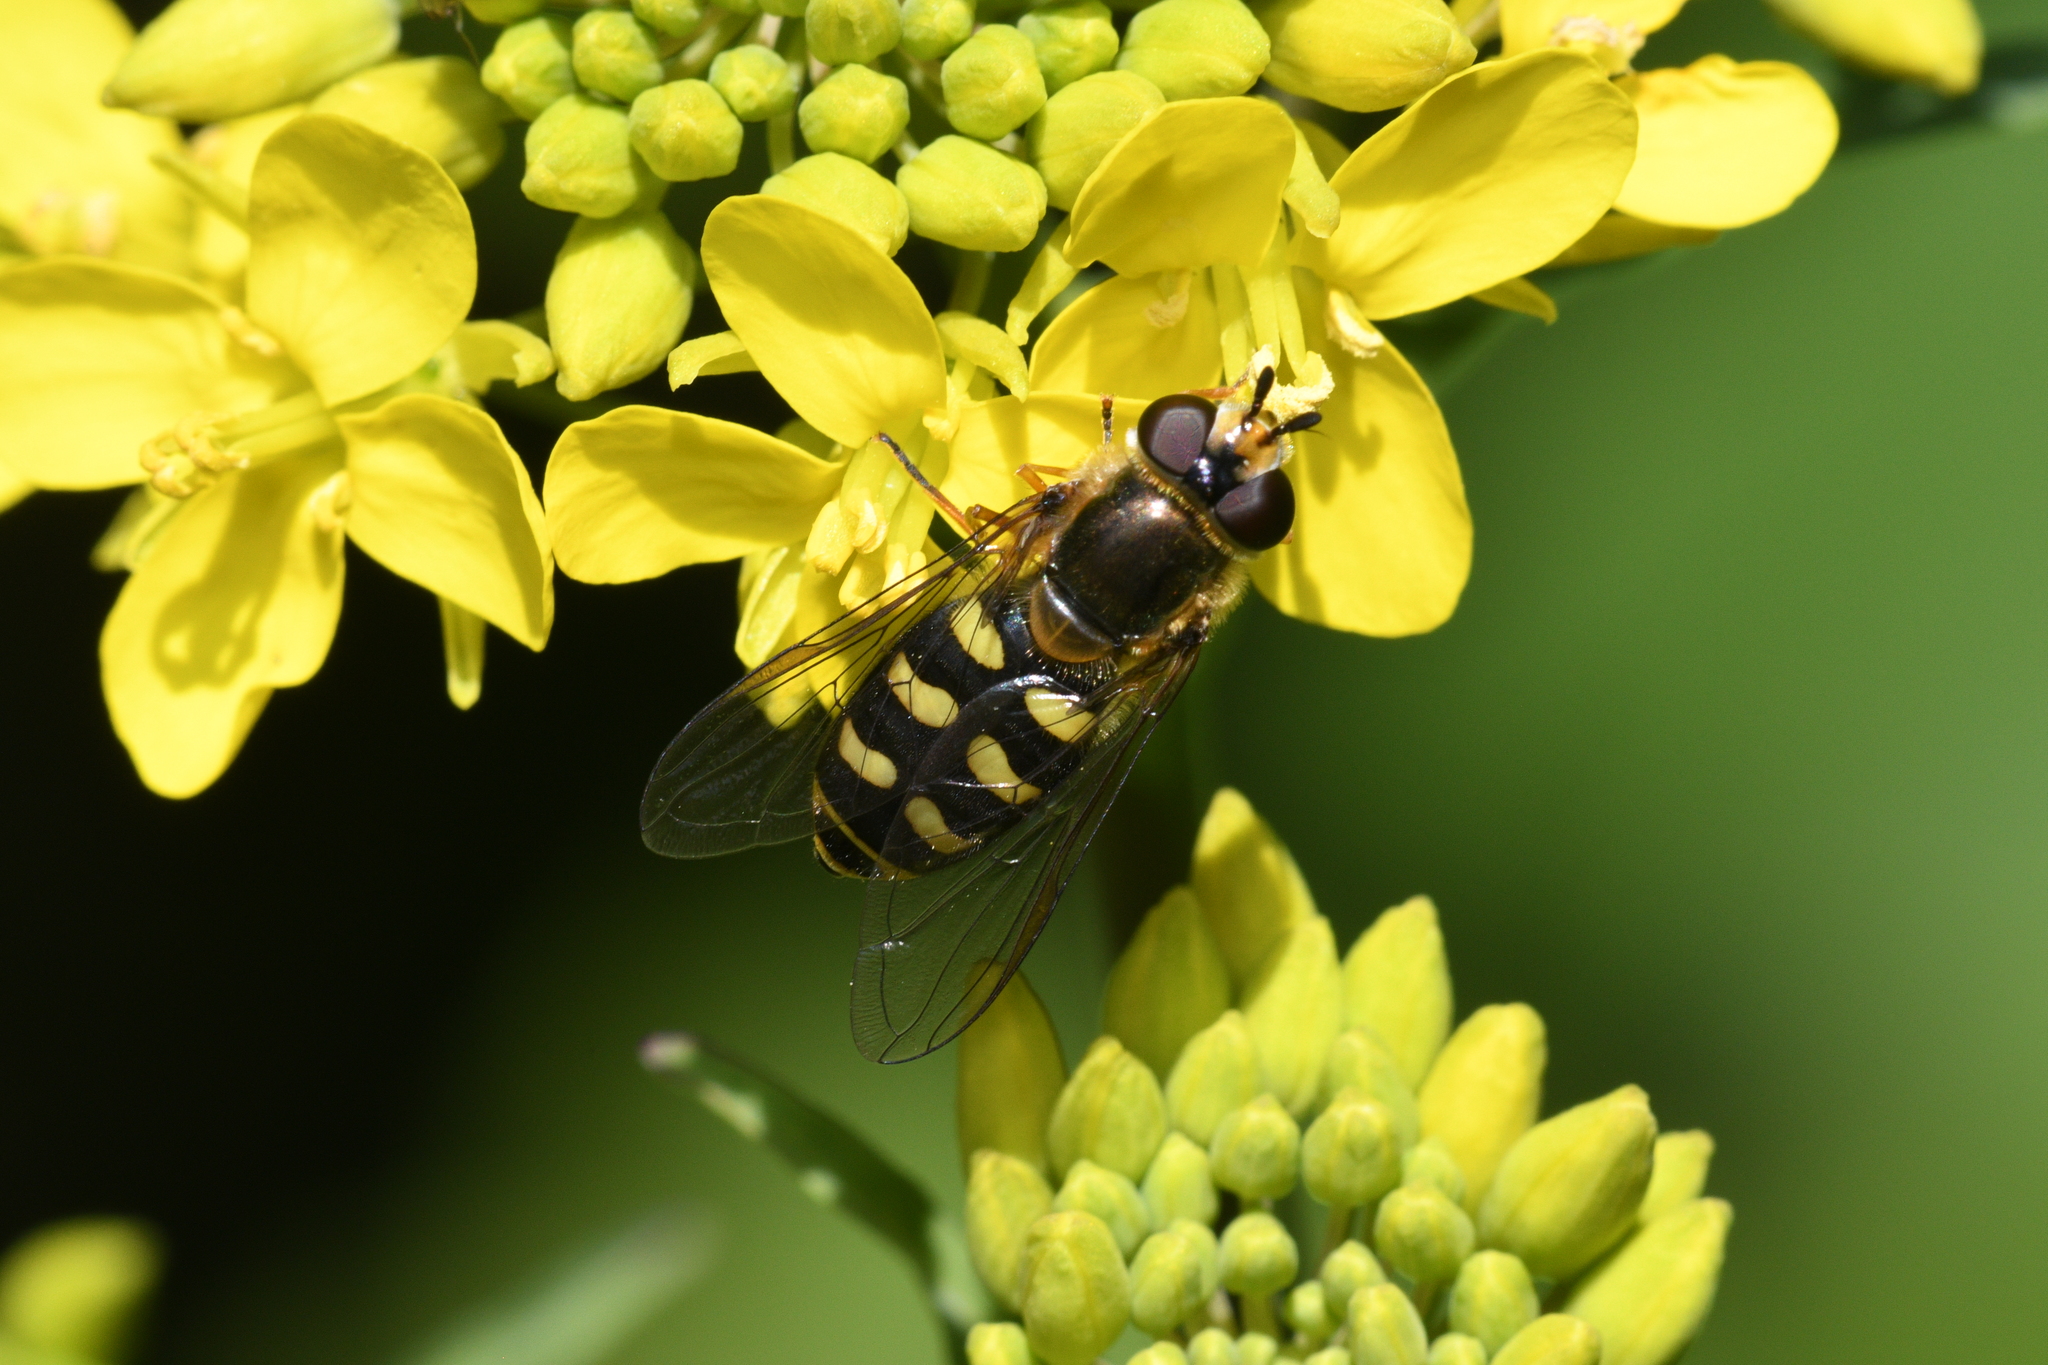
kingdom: Animalia
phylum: Arthropoda
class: Insecta
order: Diptera
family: Syrphidae
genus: Eupeodes
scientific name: Eupeodes luniger
